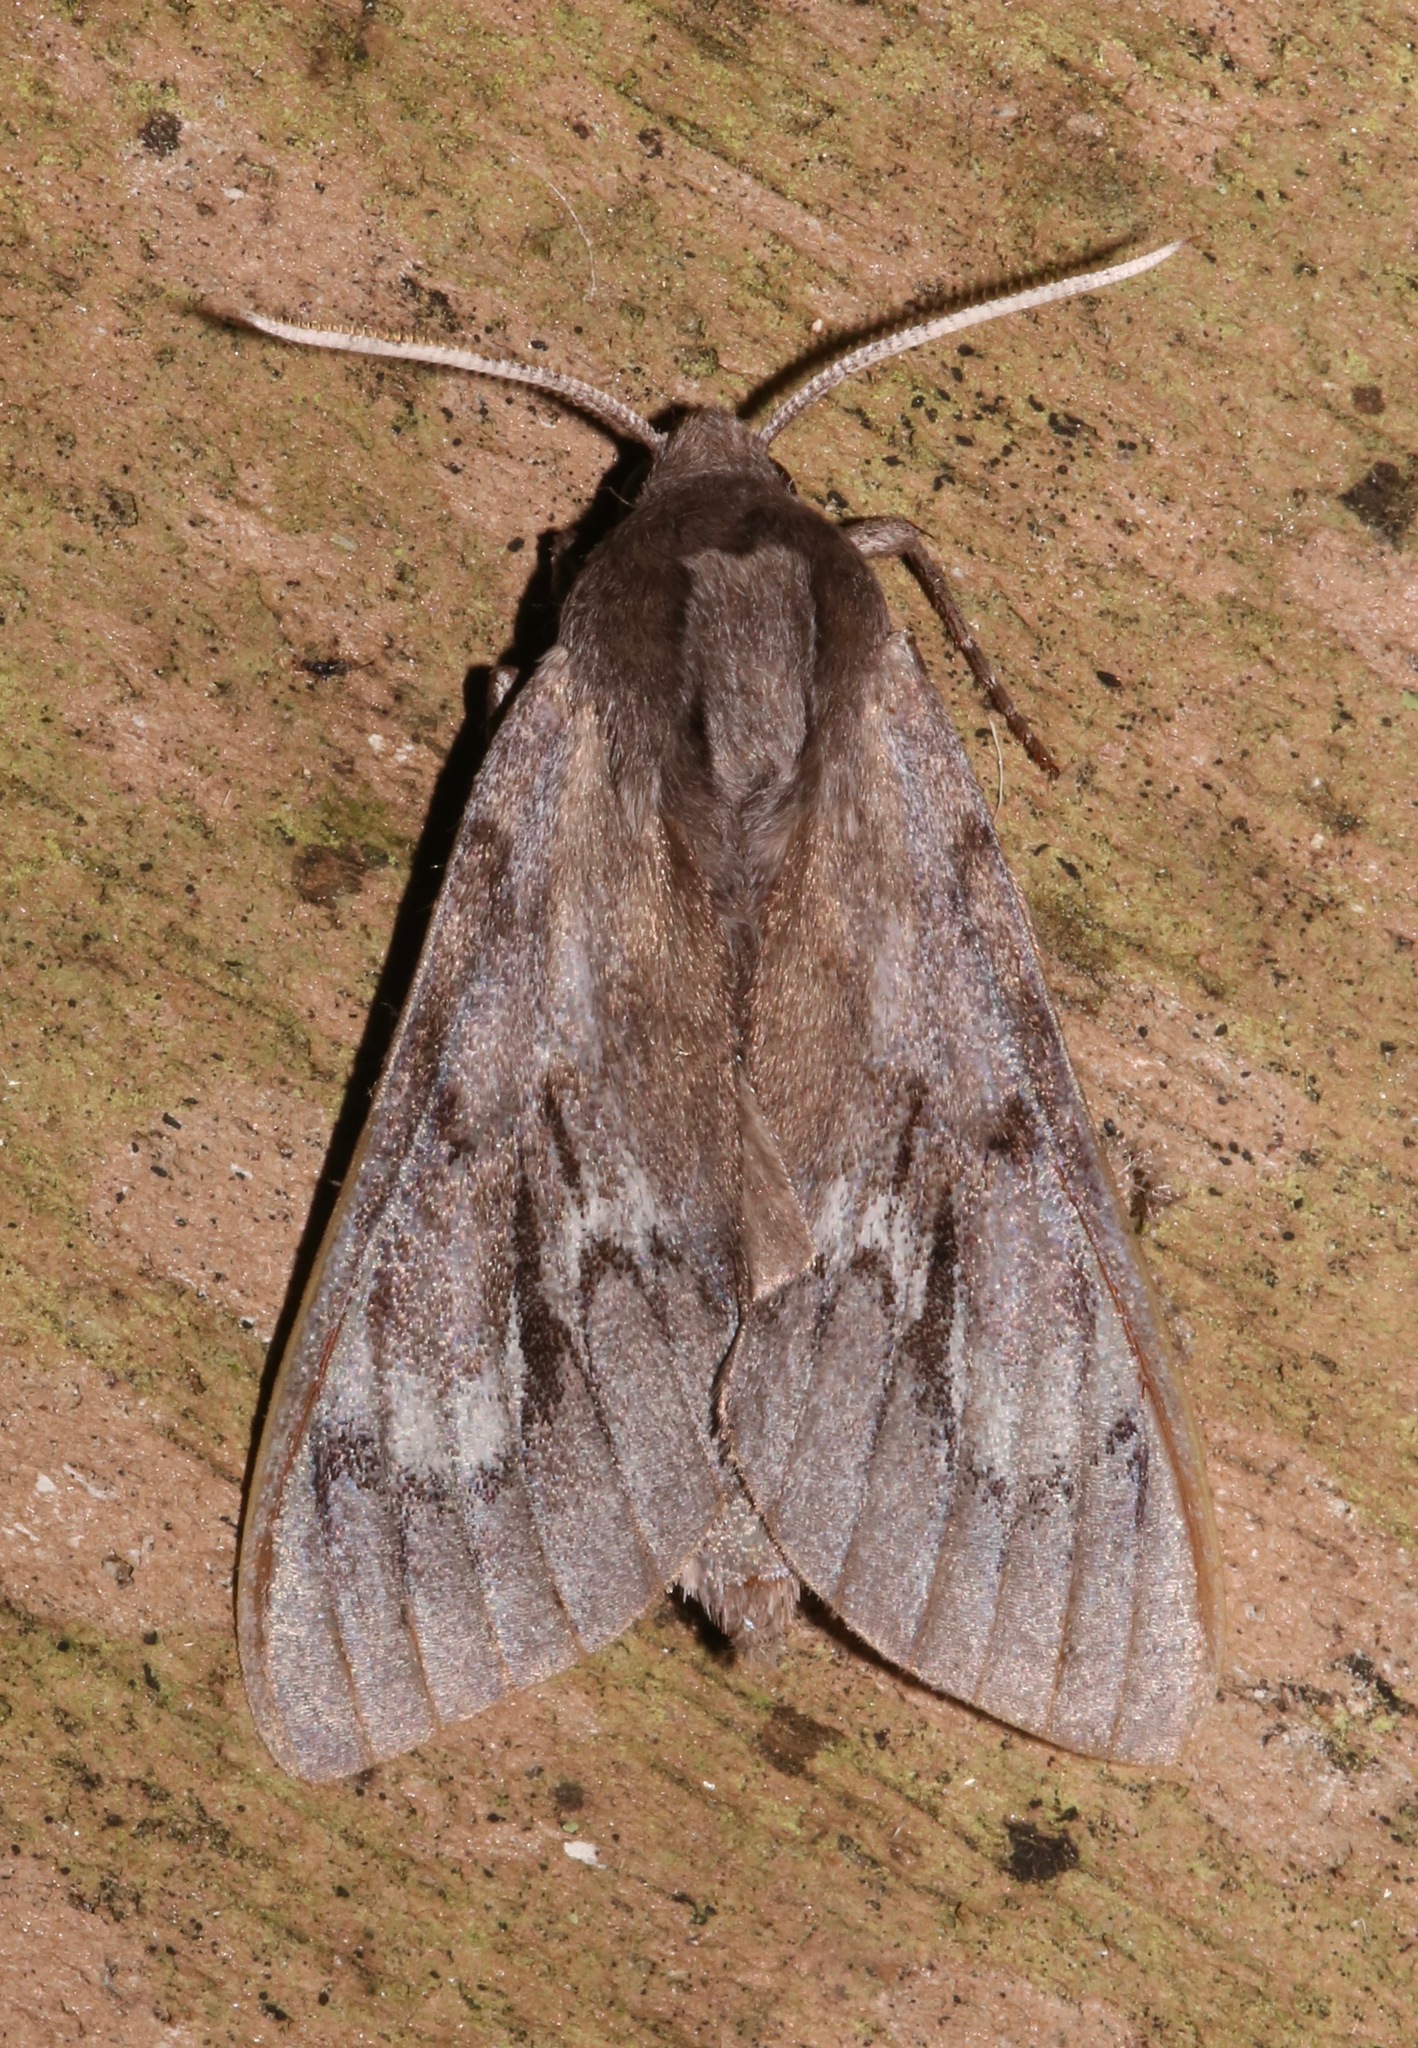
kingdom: Animalia
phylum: Arthropoda
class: Insecta
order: Lepidoptera
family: Sphingidae
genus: Lapara
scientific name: Lapara coniferarum
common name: Southern pine sphinx
